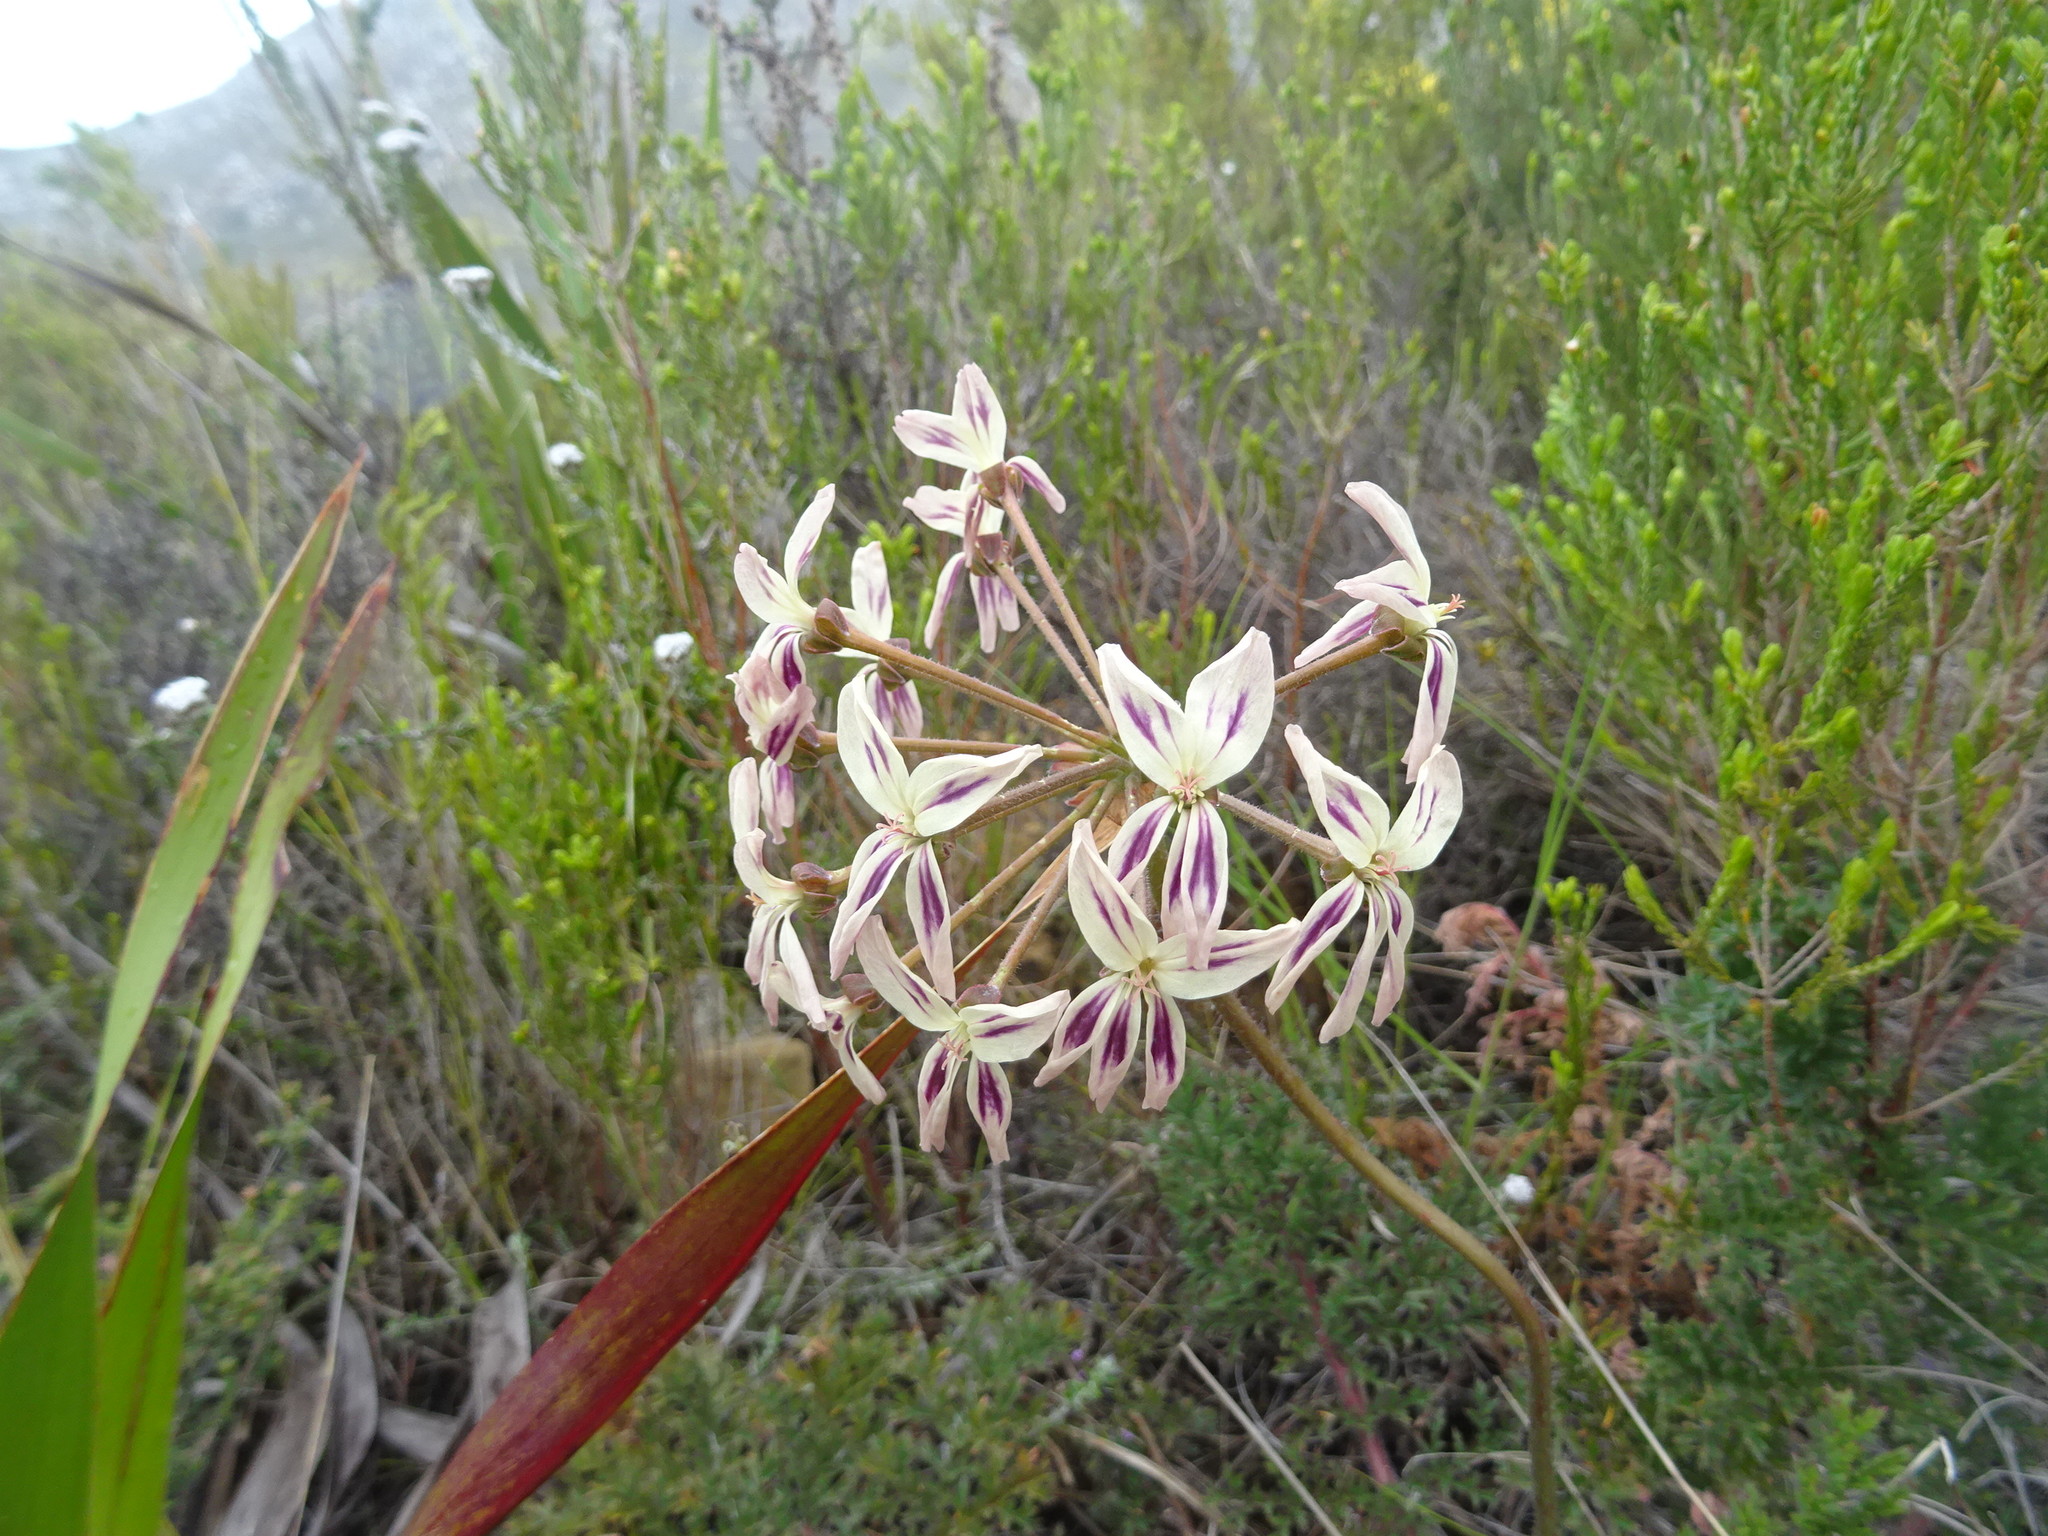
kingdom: Plantae
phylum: Tracheophyta
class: Magnoliopsida
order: Geraniales
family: Geraniaceae
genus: Pelargonium
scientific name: Pelargonium triste
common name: Night-scent pelargonium
